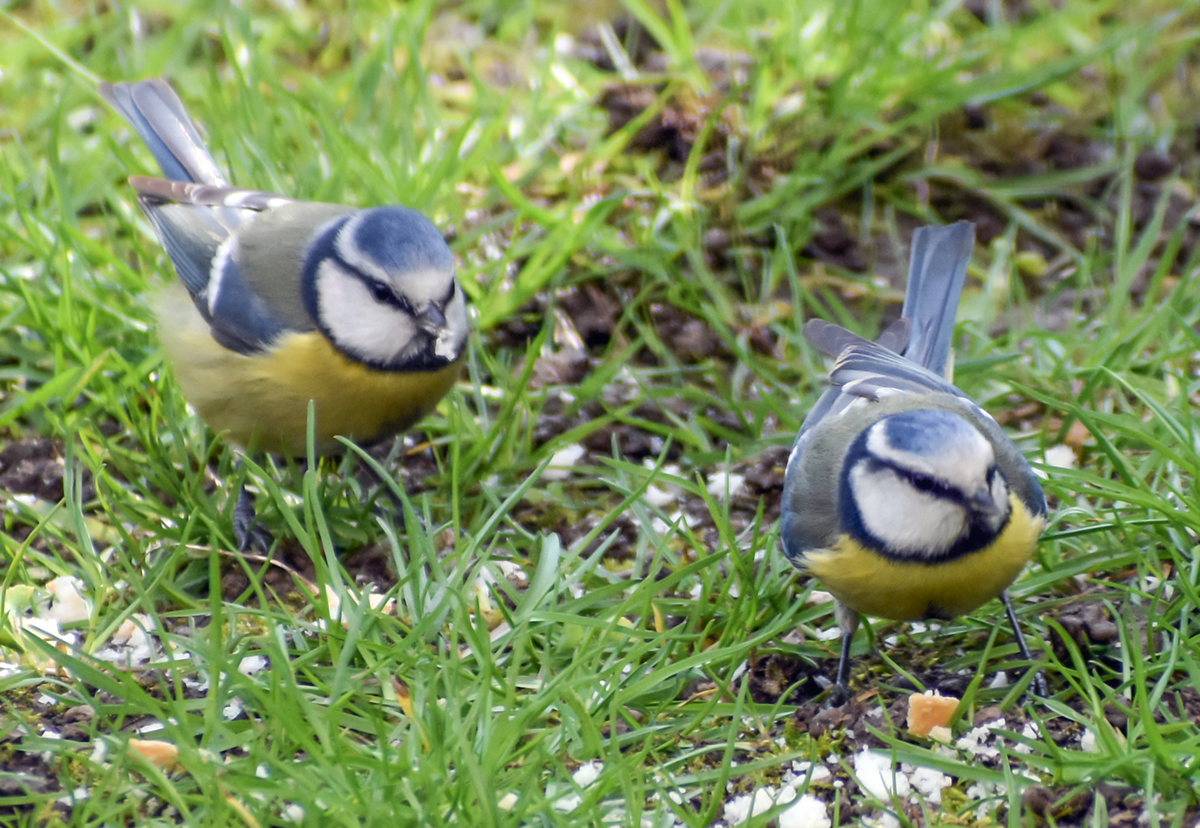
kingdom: Animalia
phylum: Chordata
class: Aves
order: Passeriformes
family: Paridae
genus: Cyanistes
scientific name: Cyanistes caeruleus
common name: Eurasian blue tit
